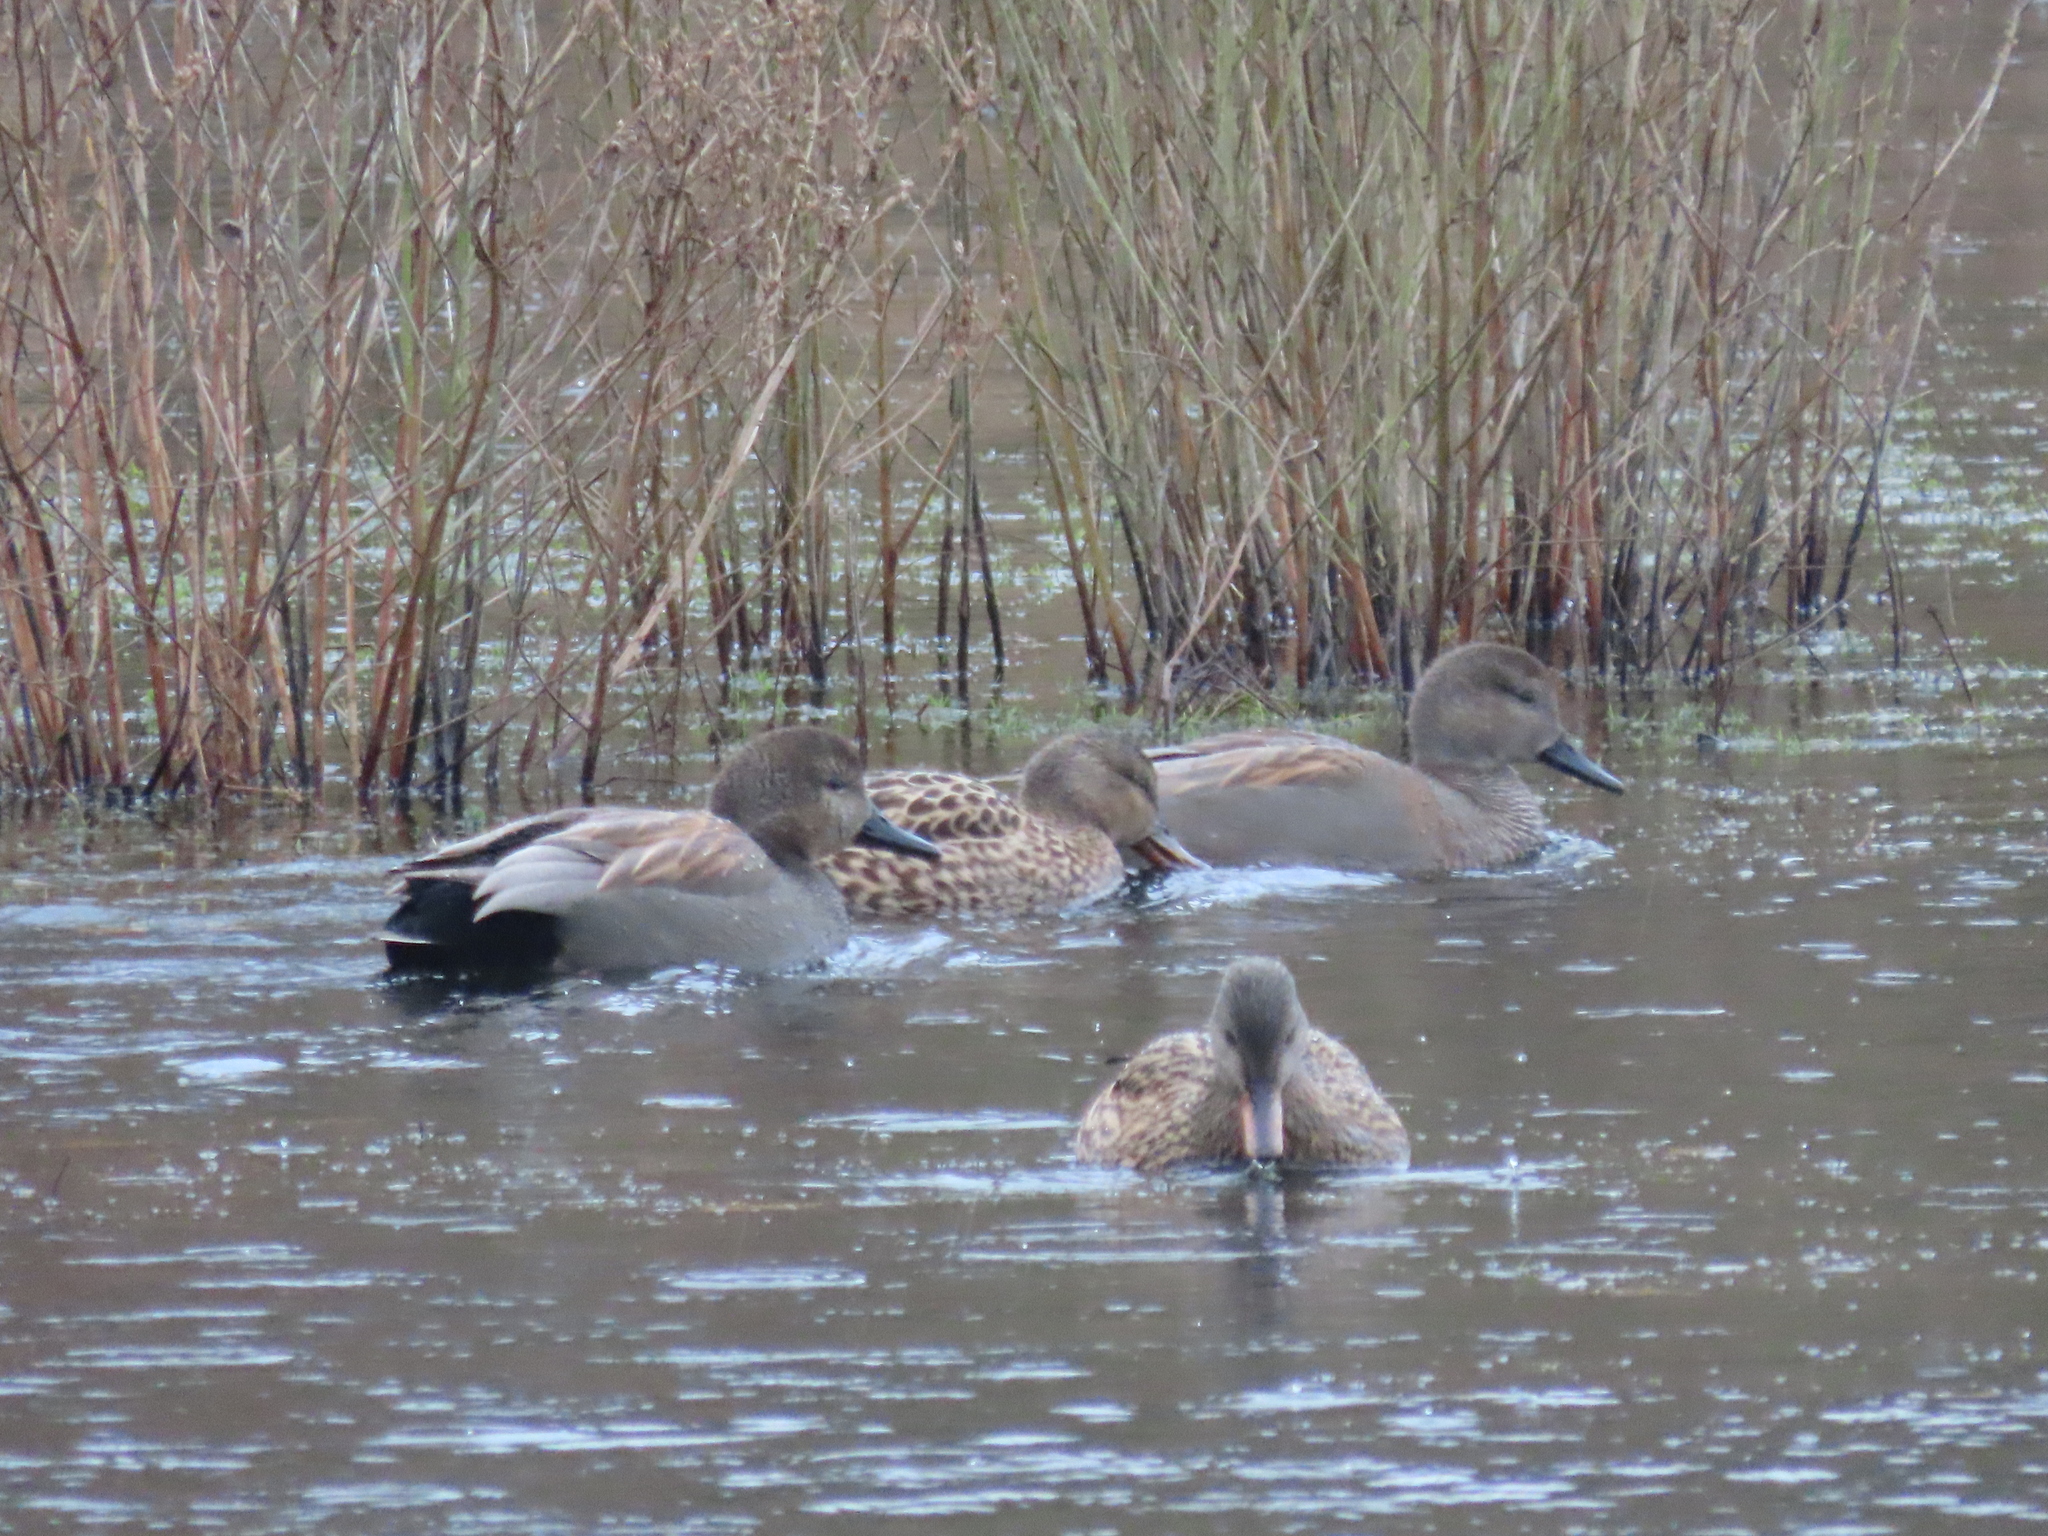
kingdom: Animalia
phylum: Chordata
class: Aves
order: Anseriformes
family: Anatidae
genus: Mareca
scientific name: Mareca strepera
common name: Gadwall
